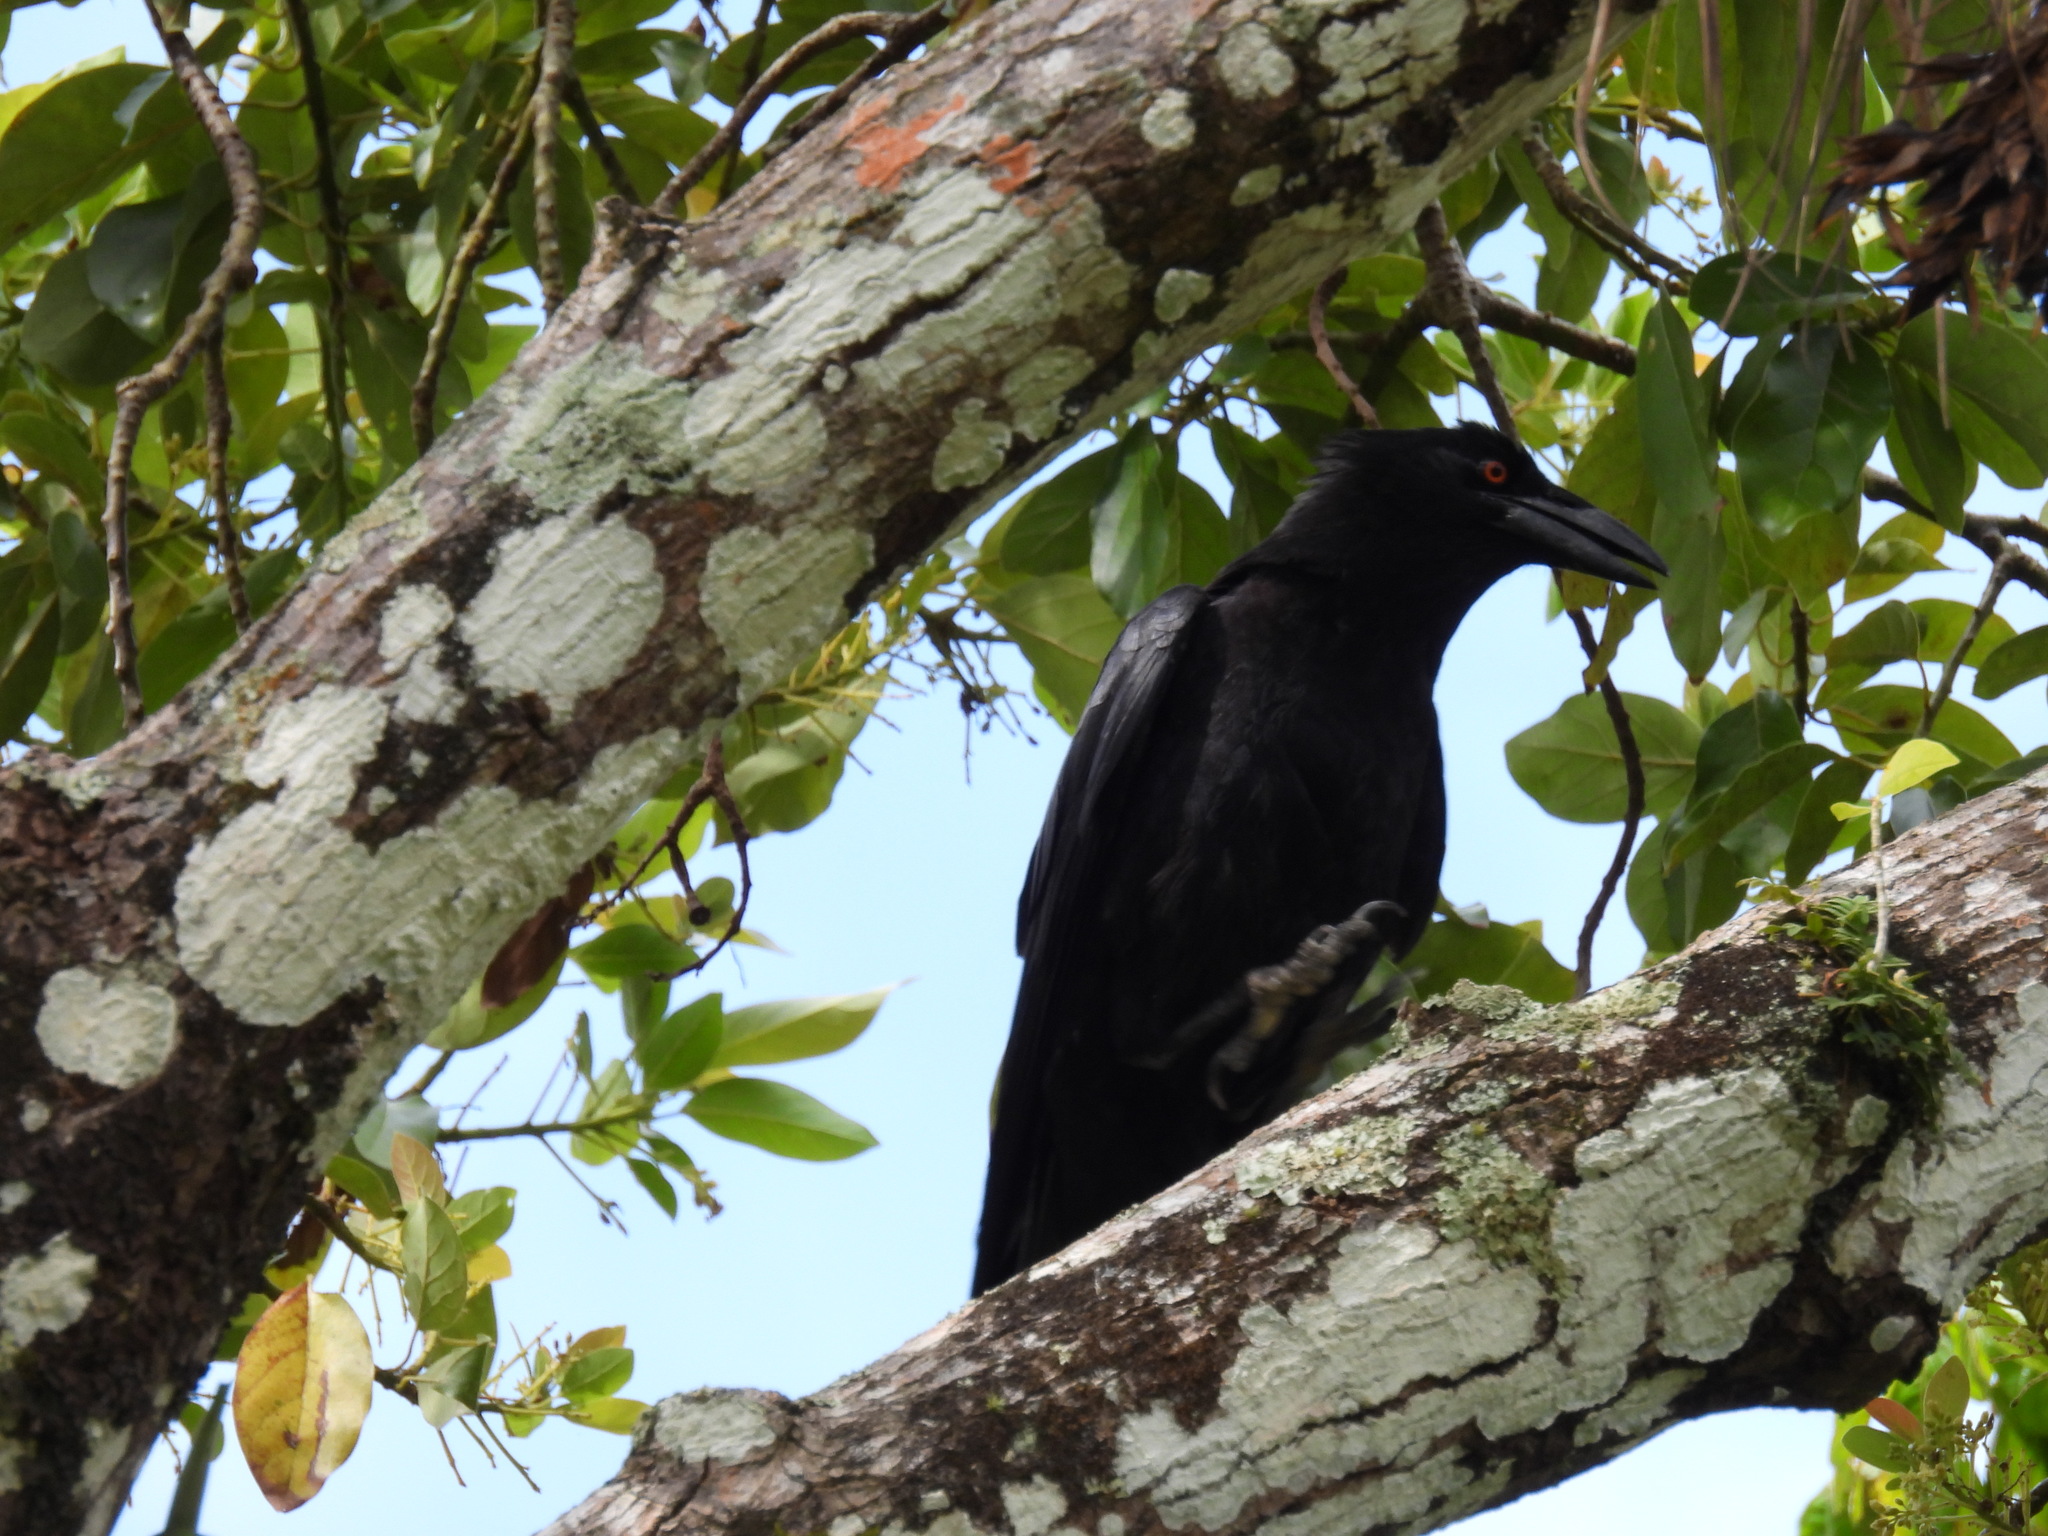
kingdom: Animalia
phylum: Chordata
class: Aves
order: Passeriformes
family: Corvidae
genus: Corvus
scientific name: Corvus leucognaphalus
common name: White-necked crow
